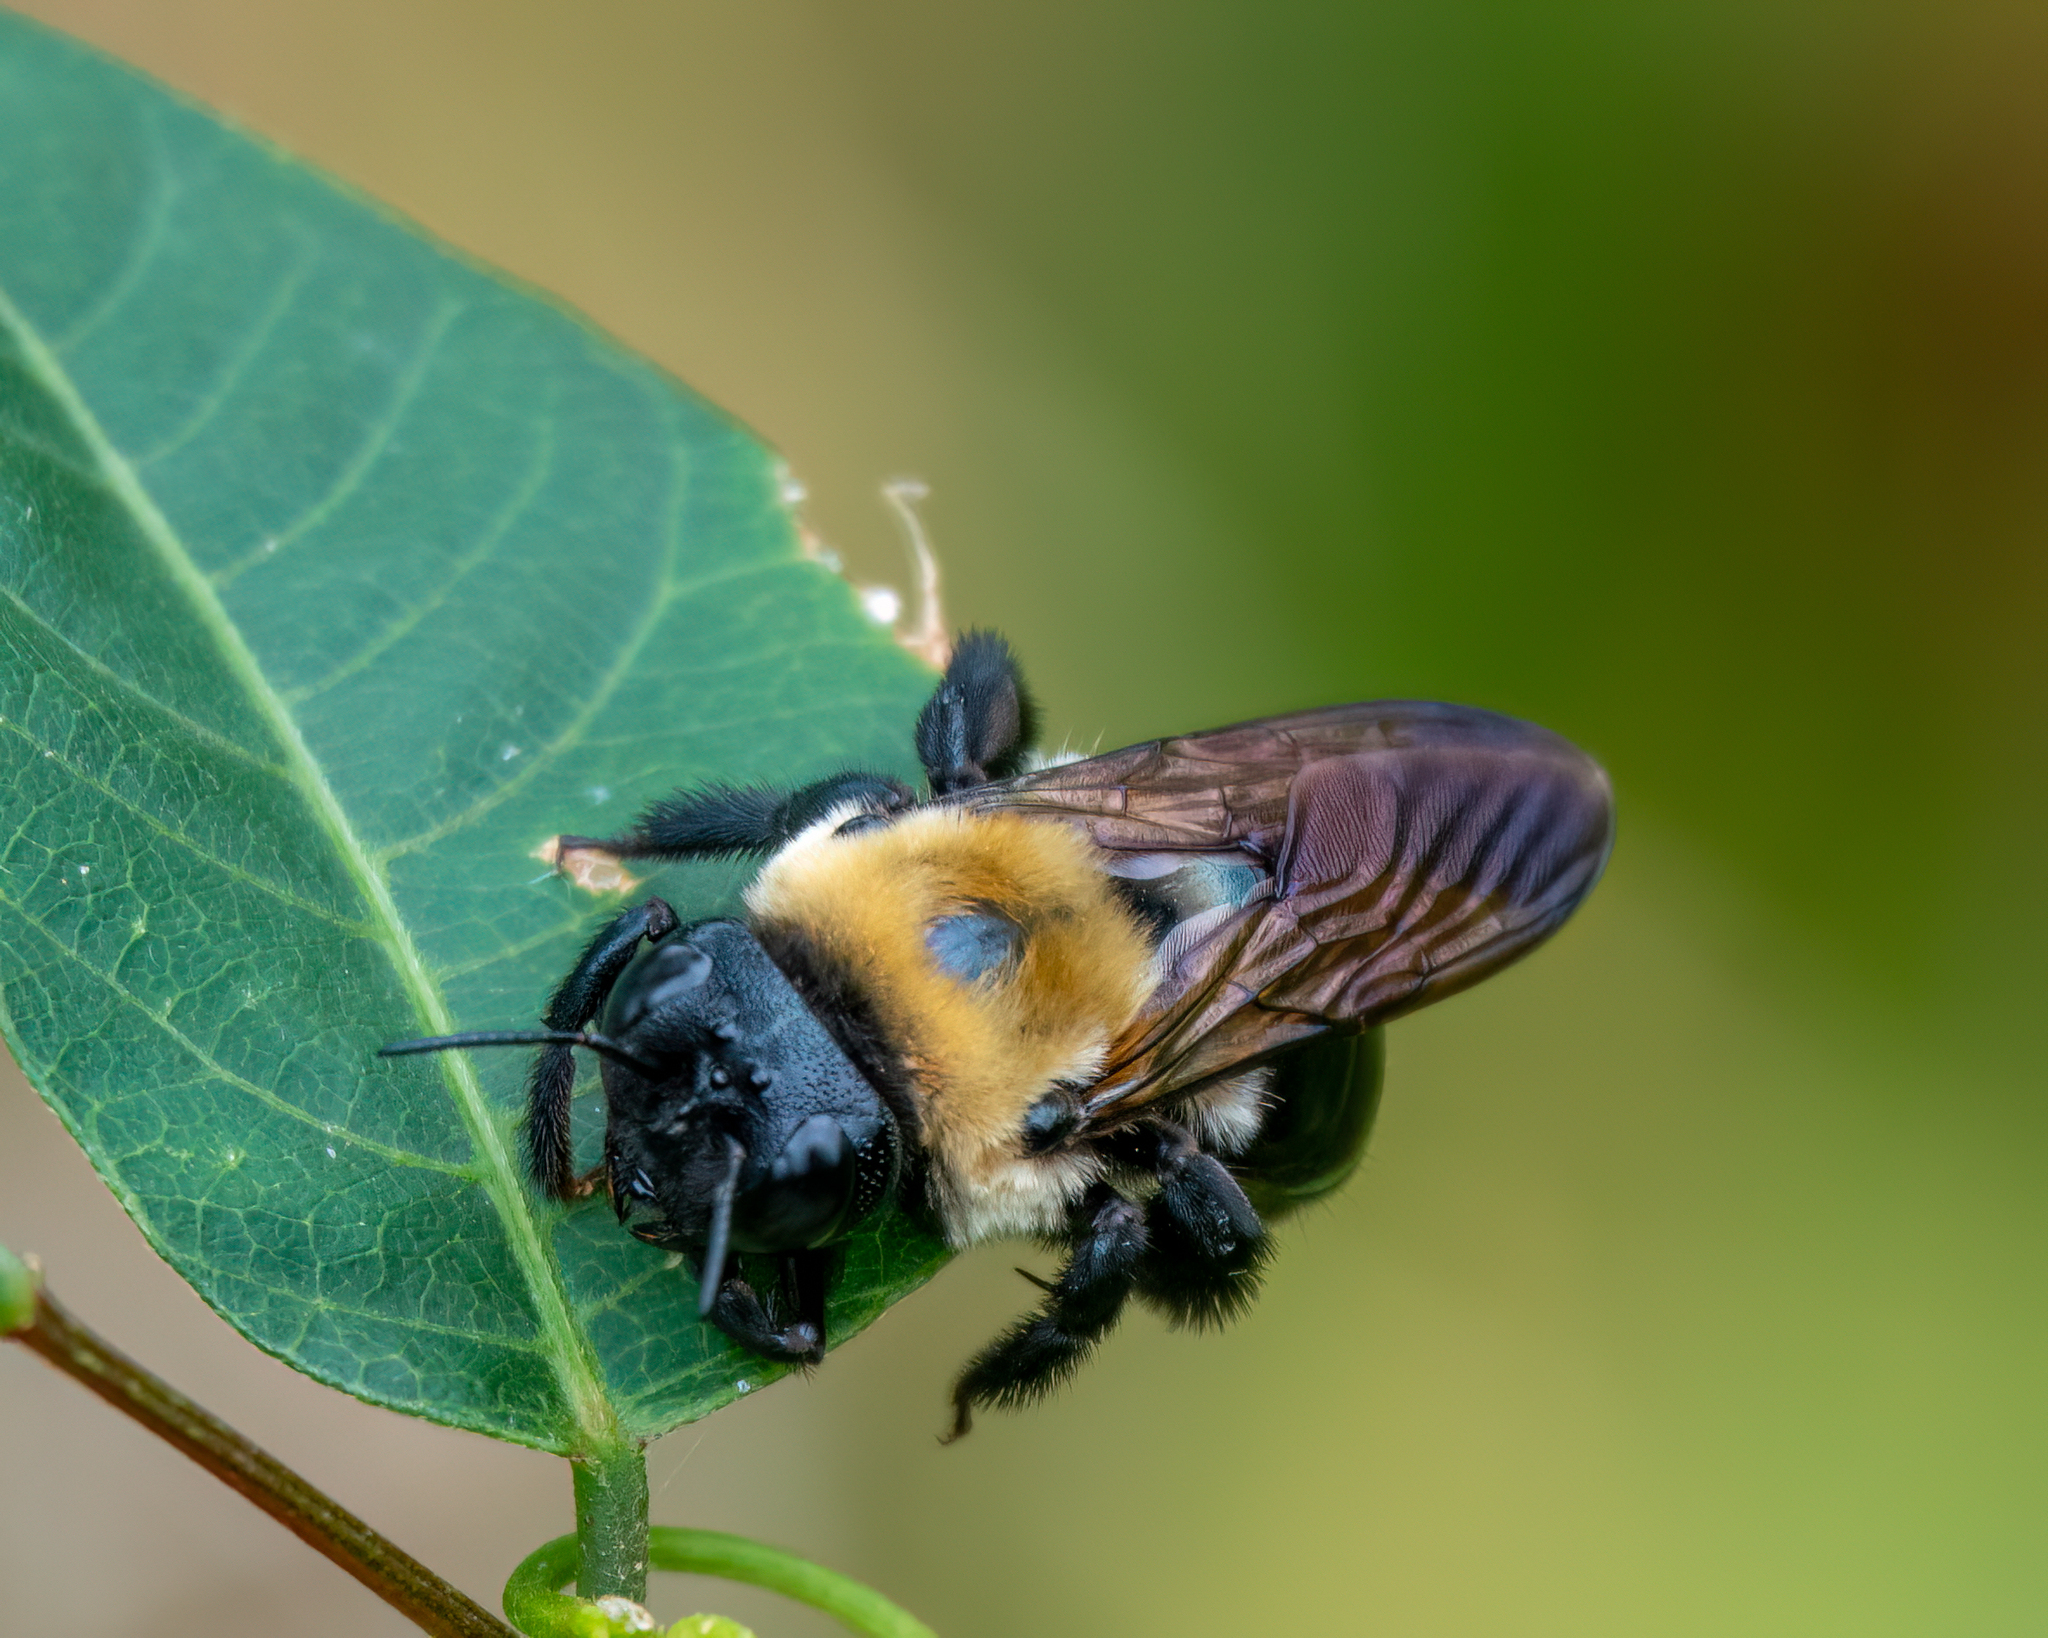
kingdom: Animalia
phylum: Arthropoda
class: Insecta
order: Hymenoptera
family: Apidae
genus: Xylocopa
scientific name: Xylocopa virginica
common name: Carpenter bee
